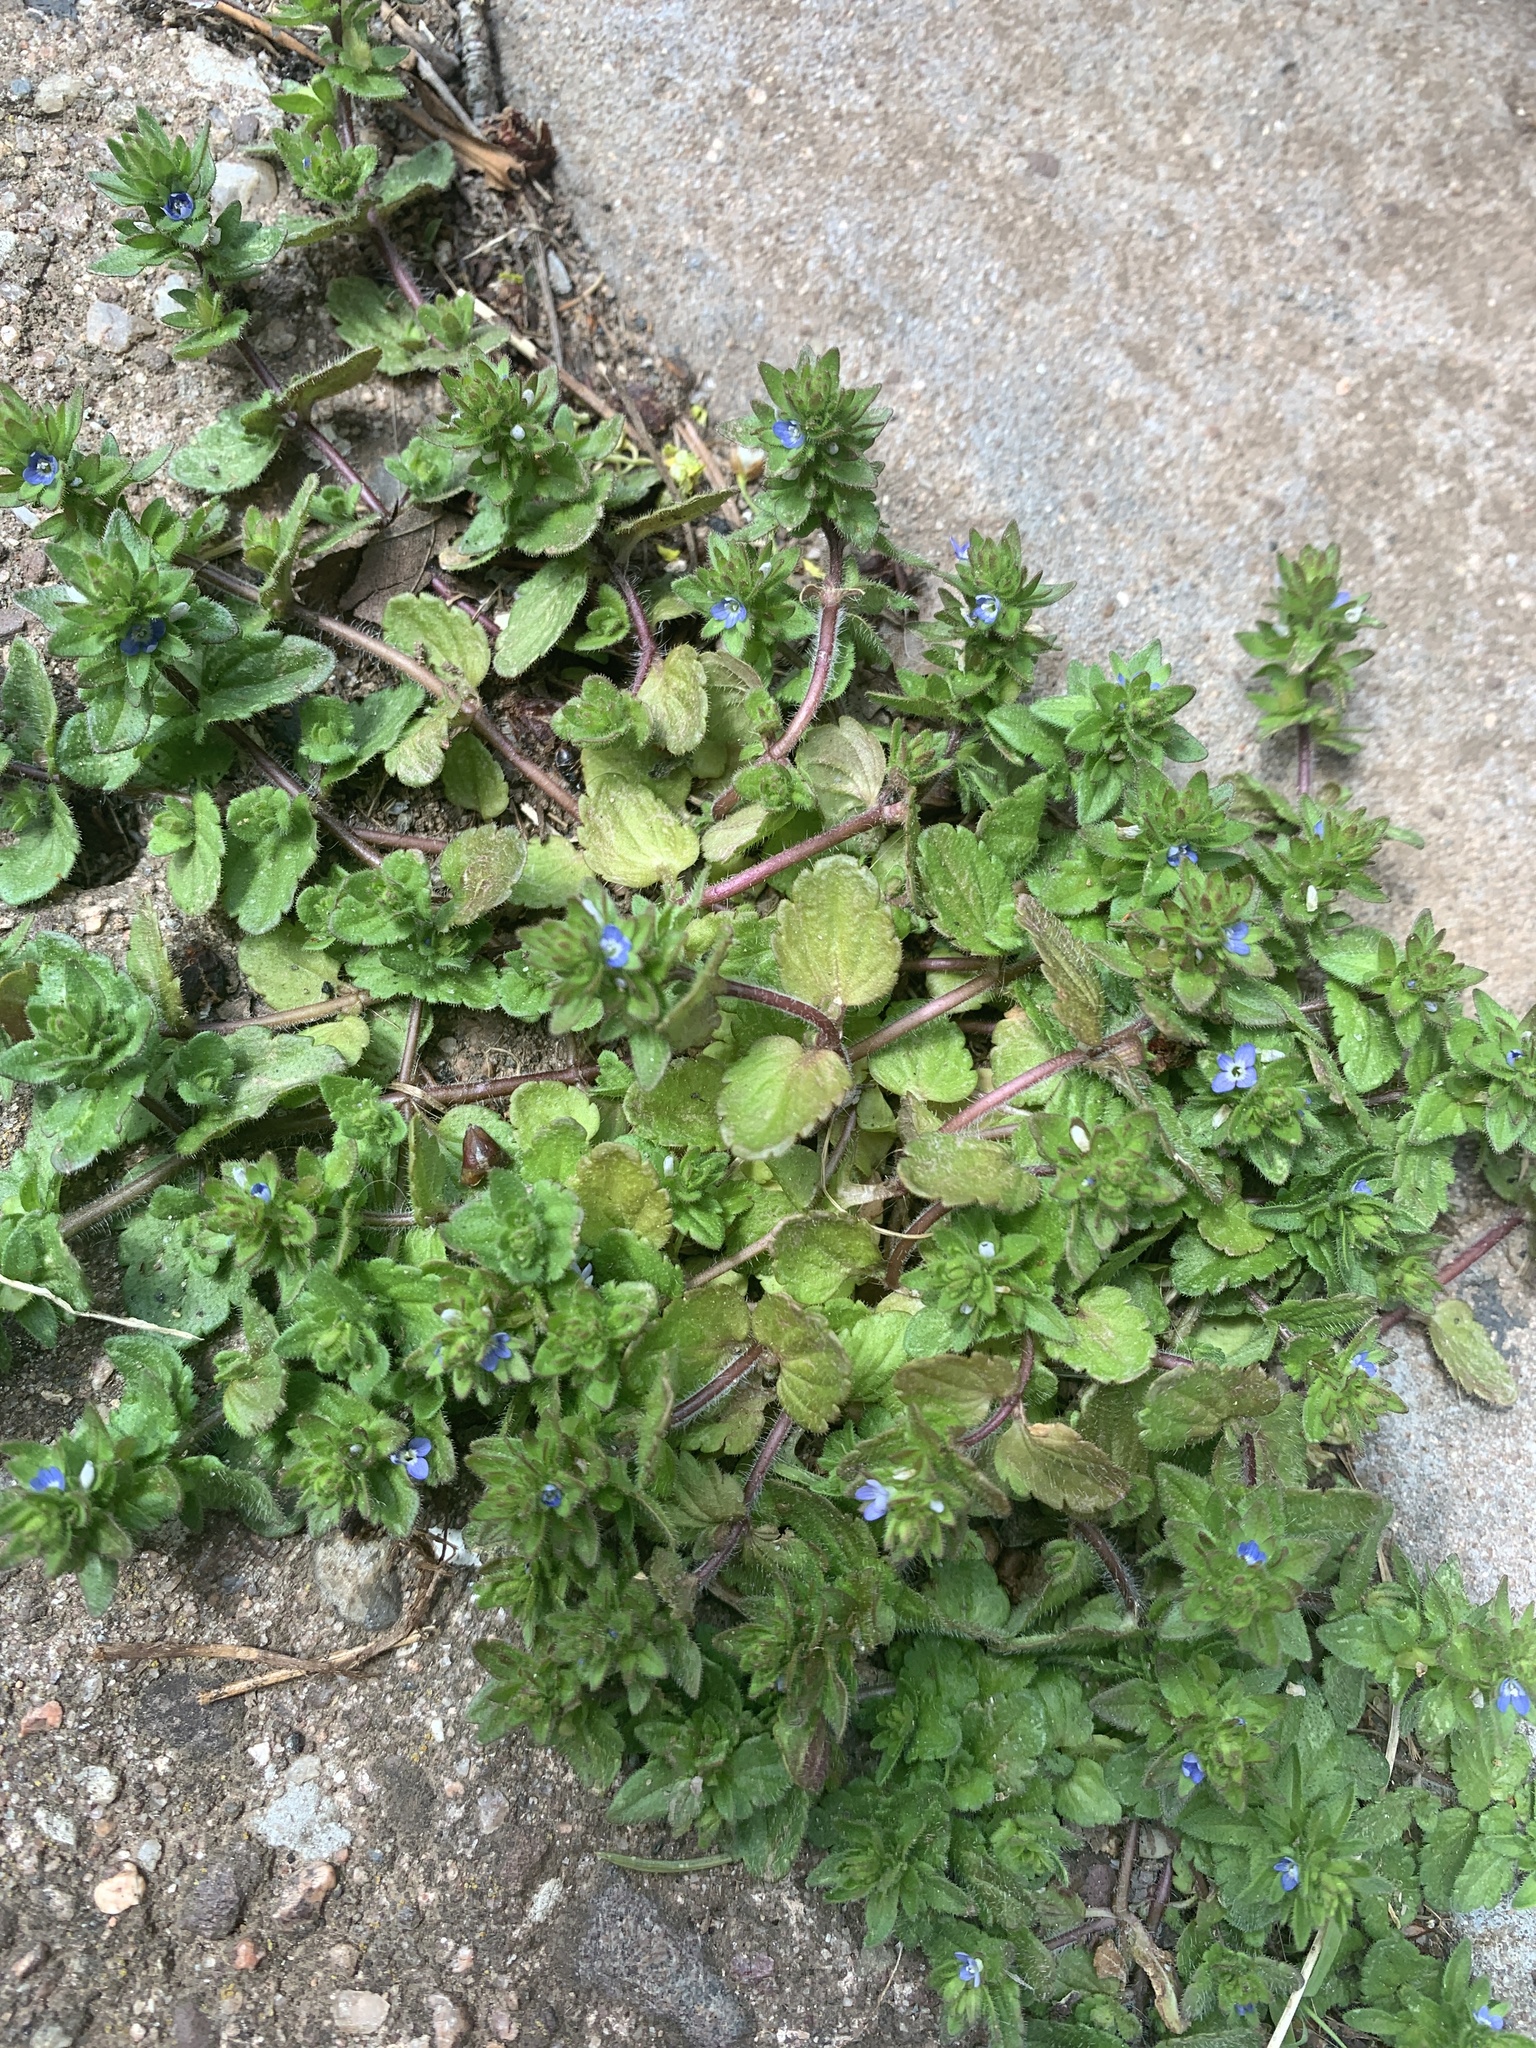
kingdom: Plantae
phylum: Tracheophyta
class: Magnoliopsida
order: Lamiales
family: Plantaginaceae
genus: Veronica
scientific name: Veronica arvensis
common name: Corn speedwell
